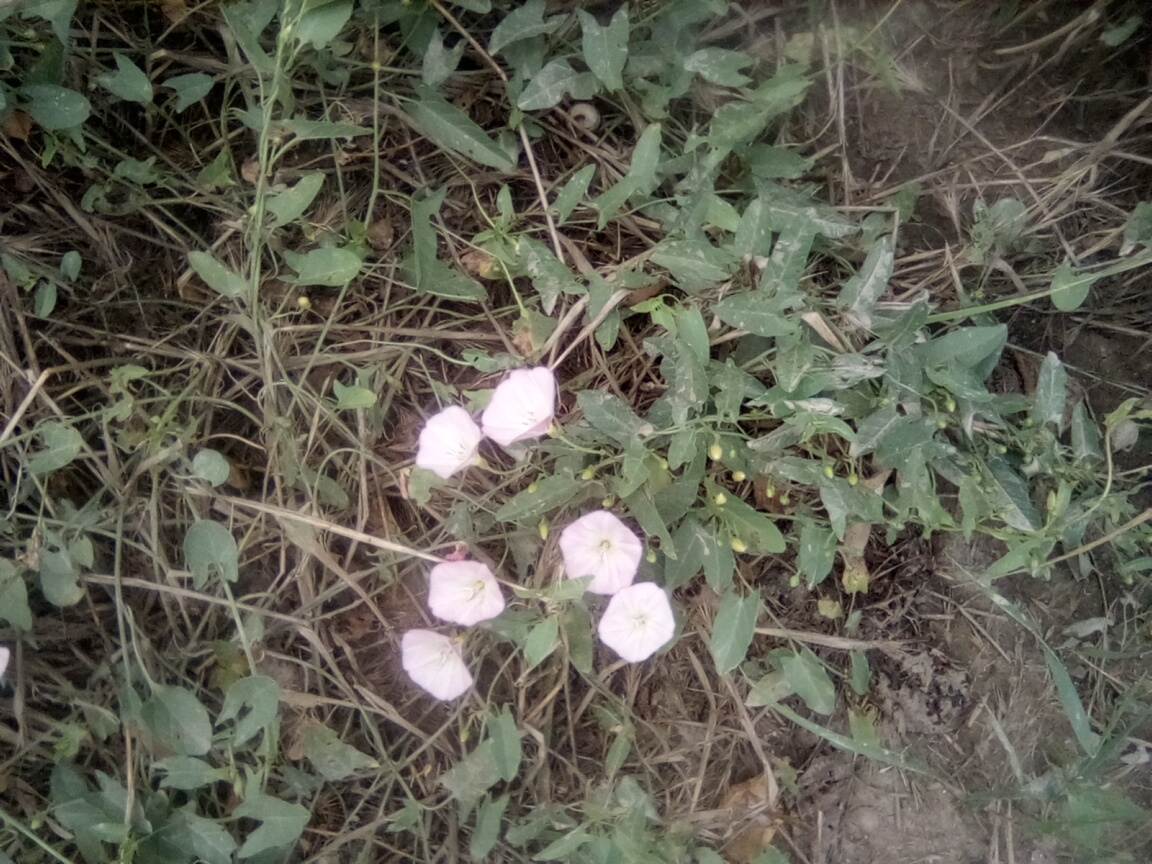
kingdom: Plantae
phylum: Tracheophyta
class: Magnoliopsida
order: Solanales
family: Convolvulaceae
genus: Convolvulus
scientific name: Convolvulus arvensis
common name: Field bindweed
